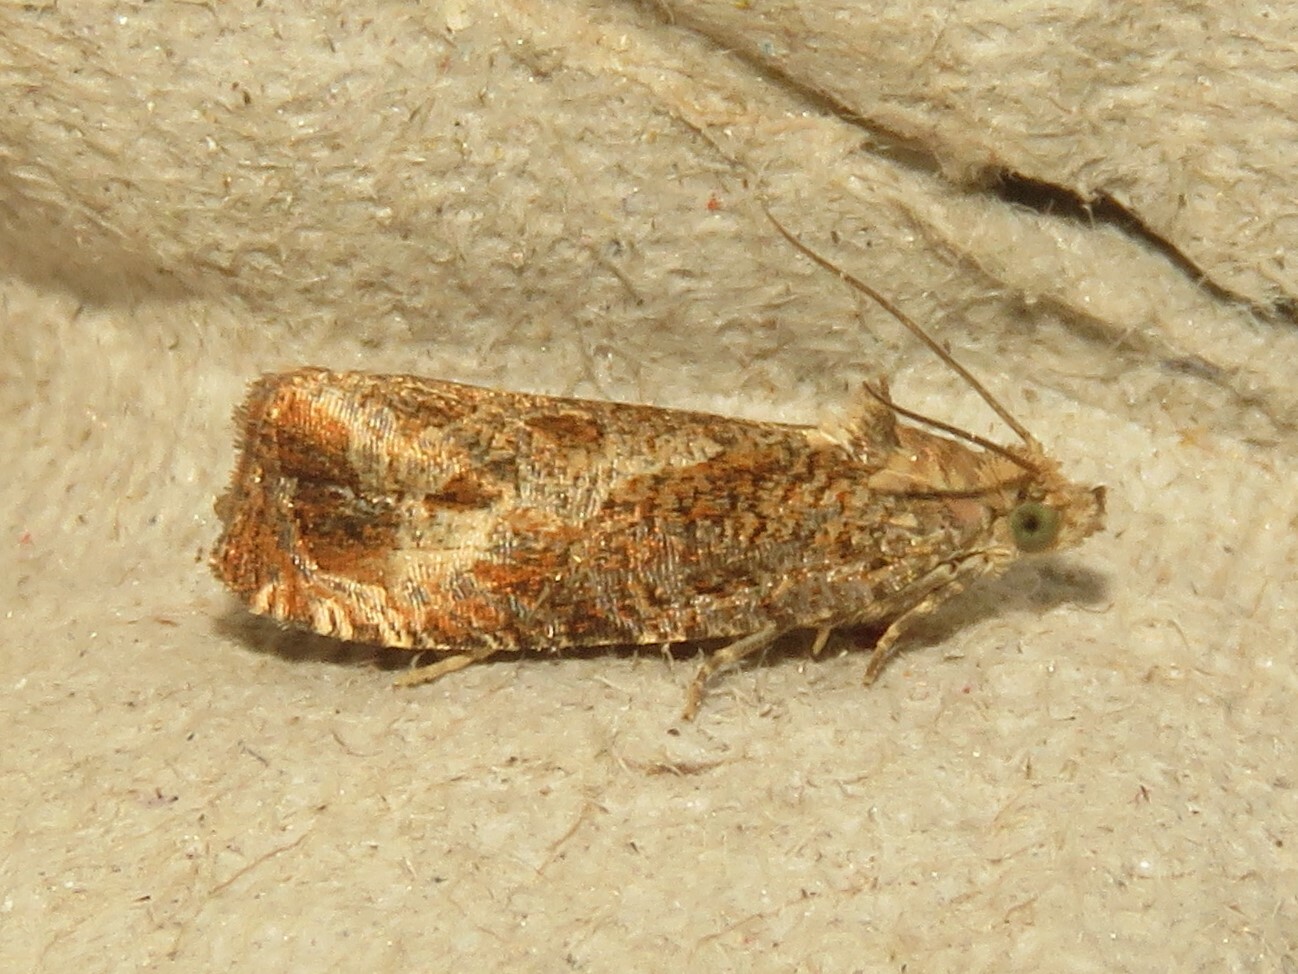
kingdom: Animalia
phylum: Arthropoda
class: Insecta
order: Lepidoptera
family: Tortricidae
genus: Olethreutes
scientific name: Olethreutes merrickanum
